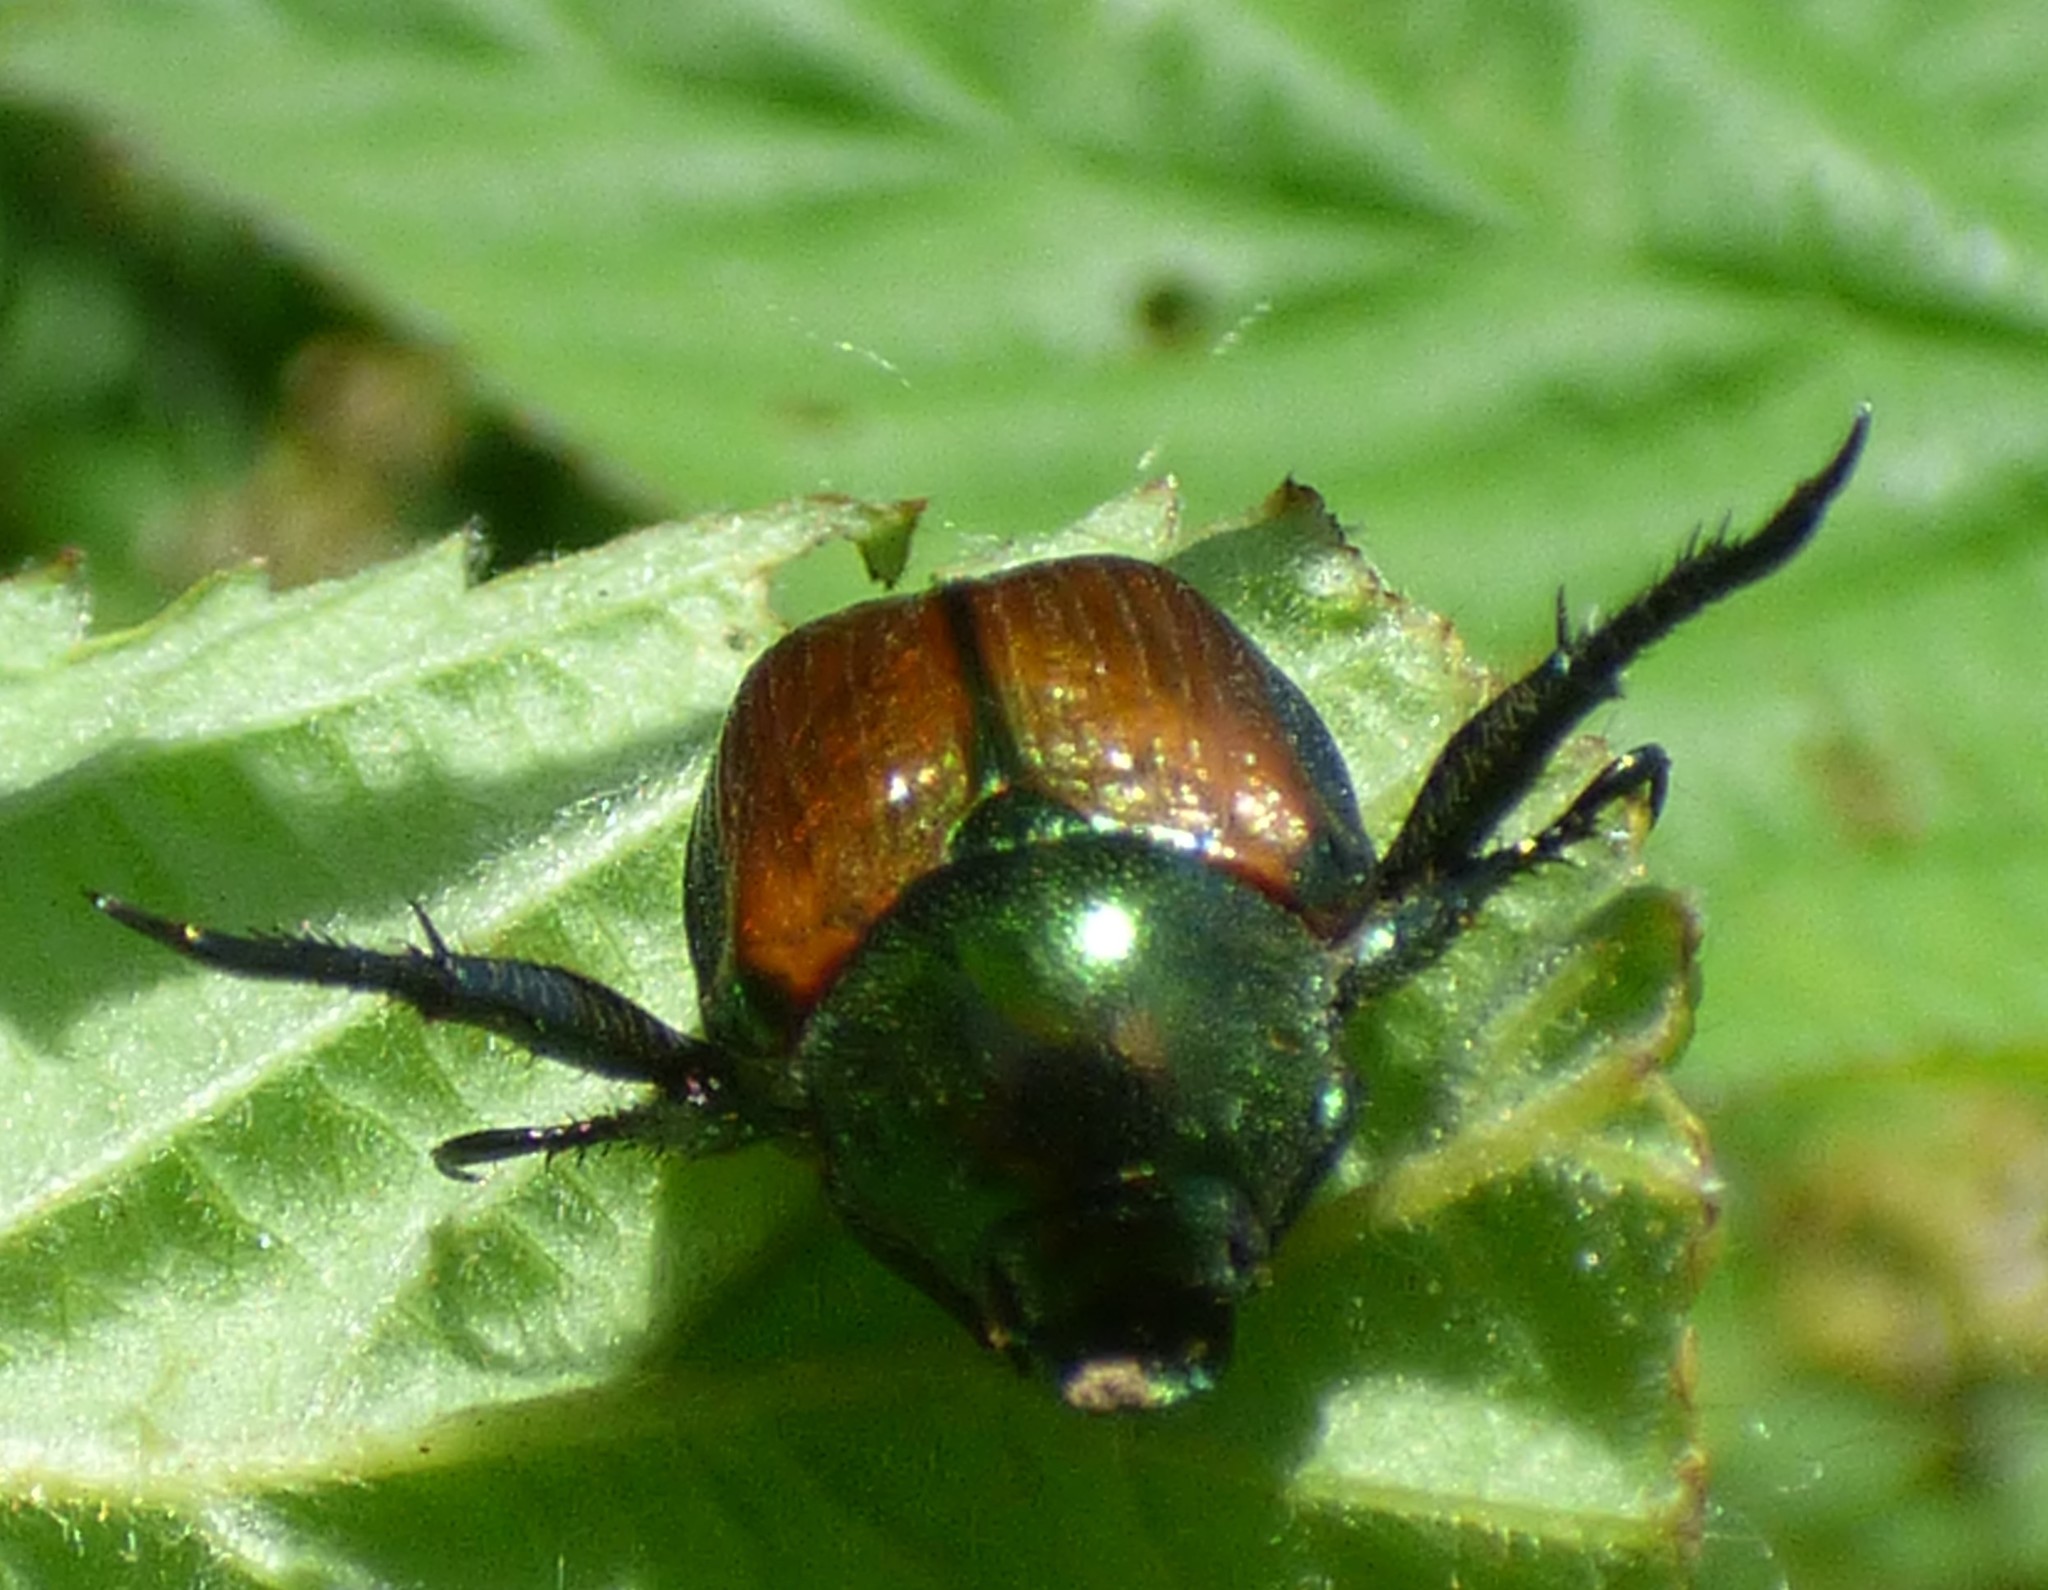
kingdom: Animalia
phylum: Arthropoda
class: Insecta
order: Coleoptera
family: Scarabaeidae
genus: Popillia
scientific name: Popillia japonica
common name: Japanese beetle
